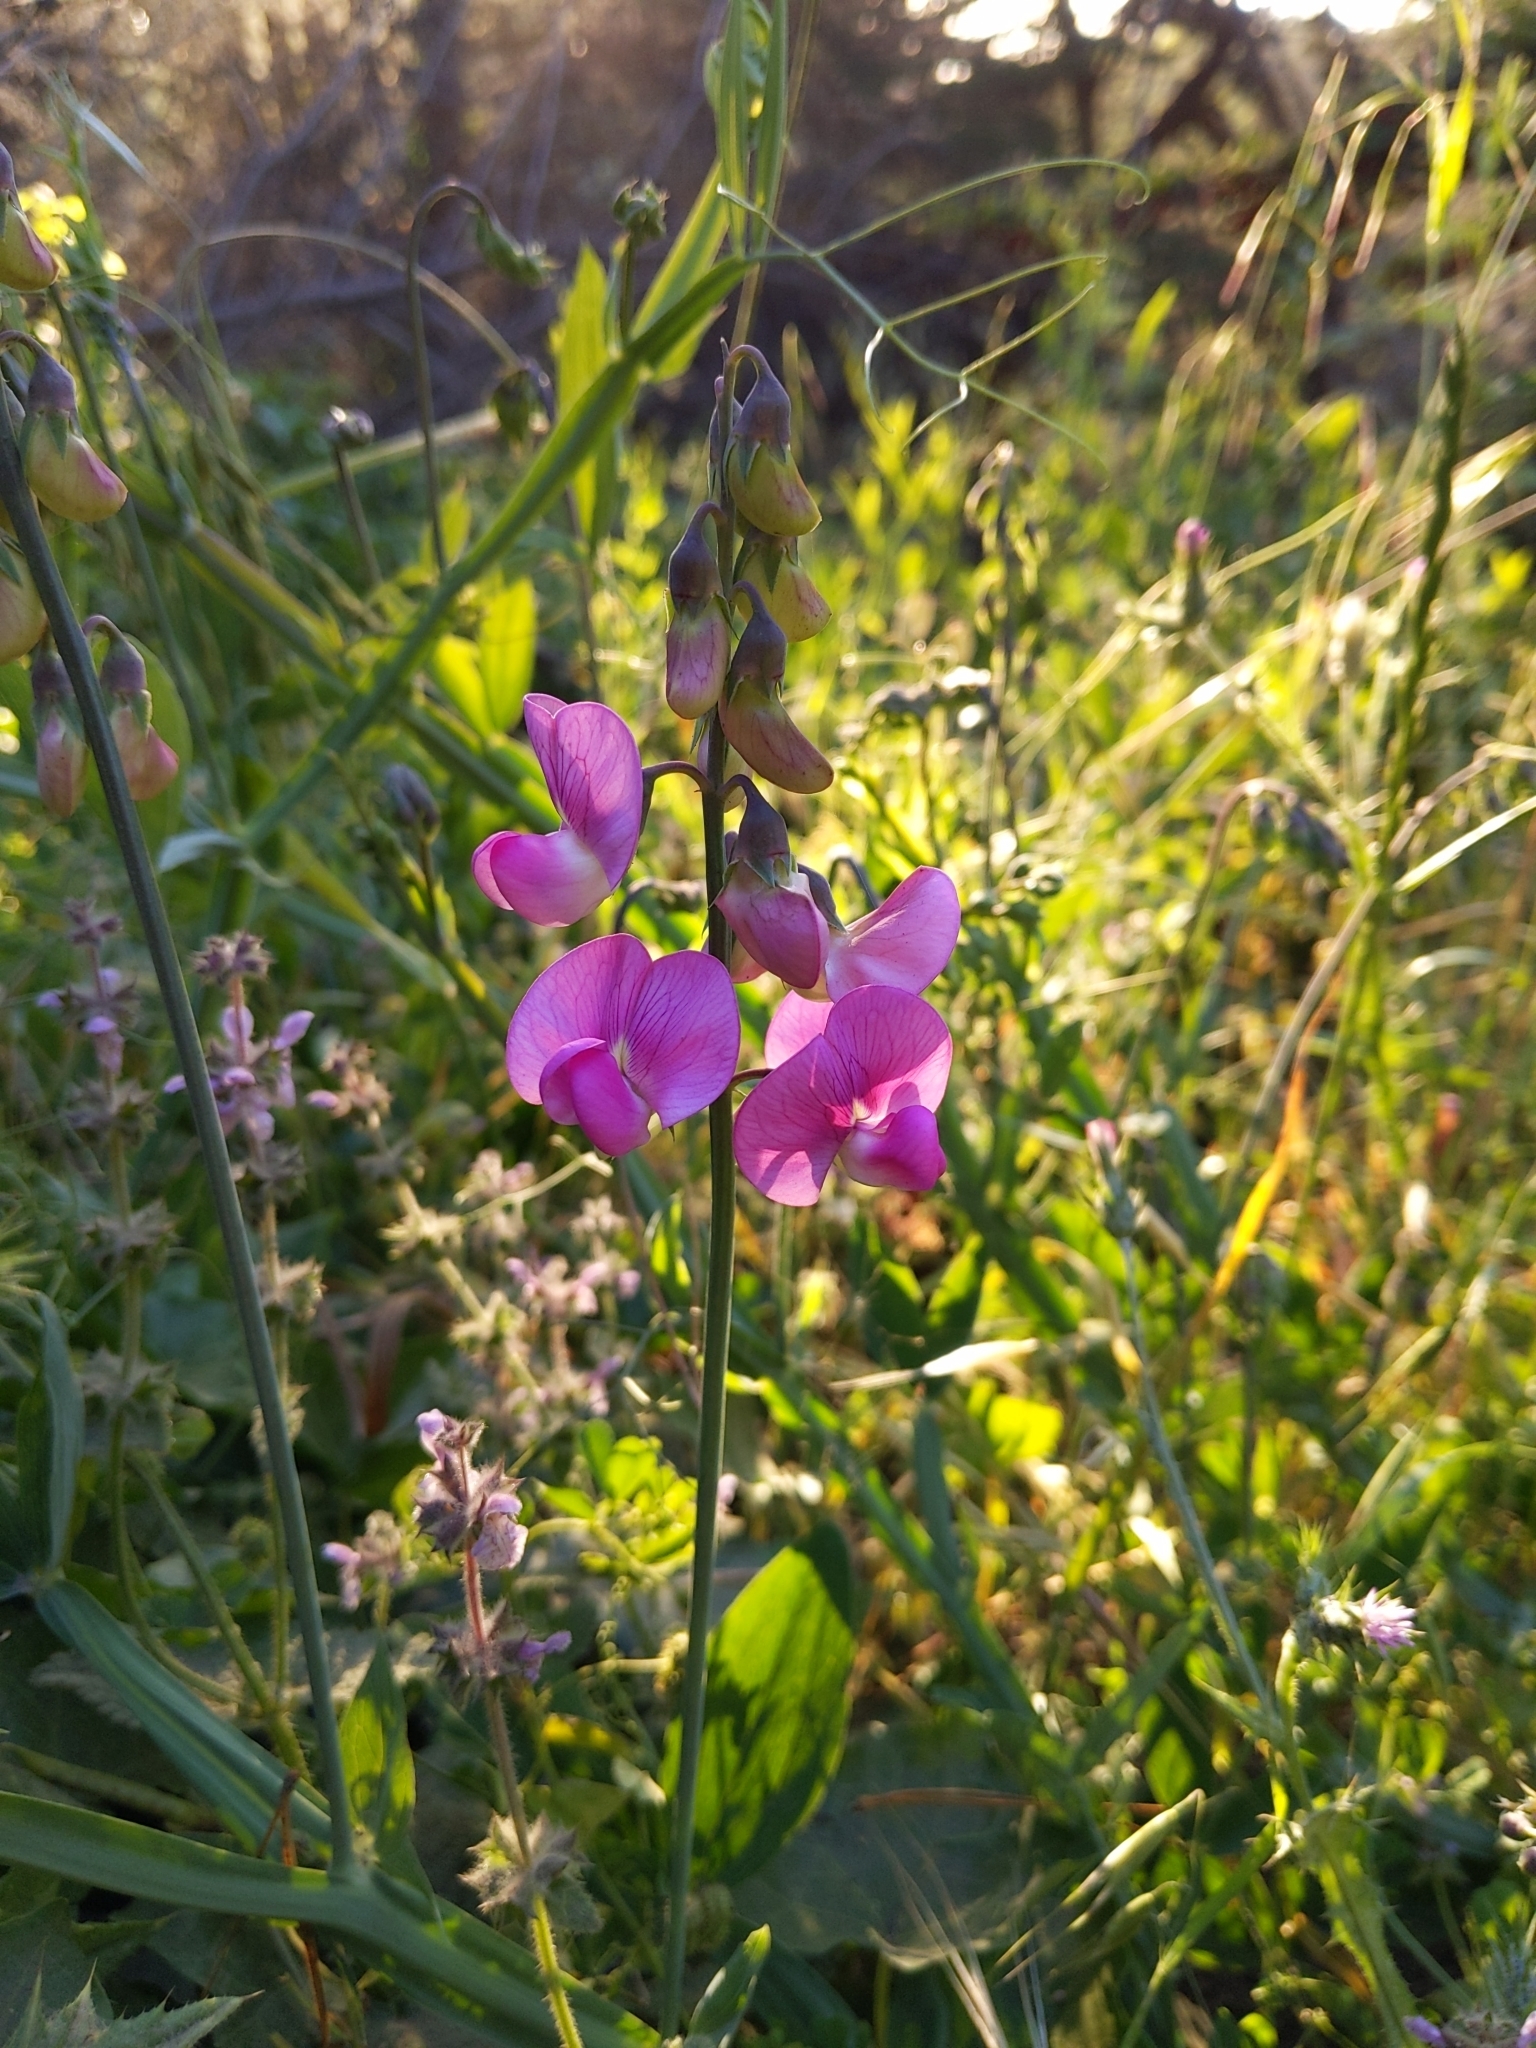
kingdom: Plantae
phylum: Tracheophyta
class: Magnoliopsida
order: Fabales
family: Fabaceae
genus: Lathyrus
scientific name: Lathyrus latifolius
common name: Perennial pea
